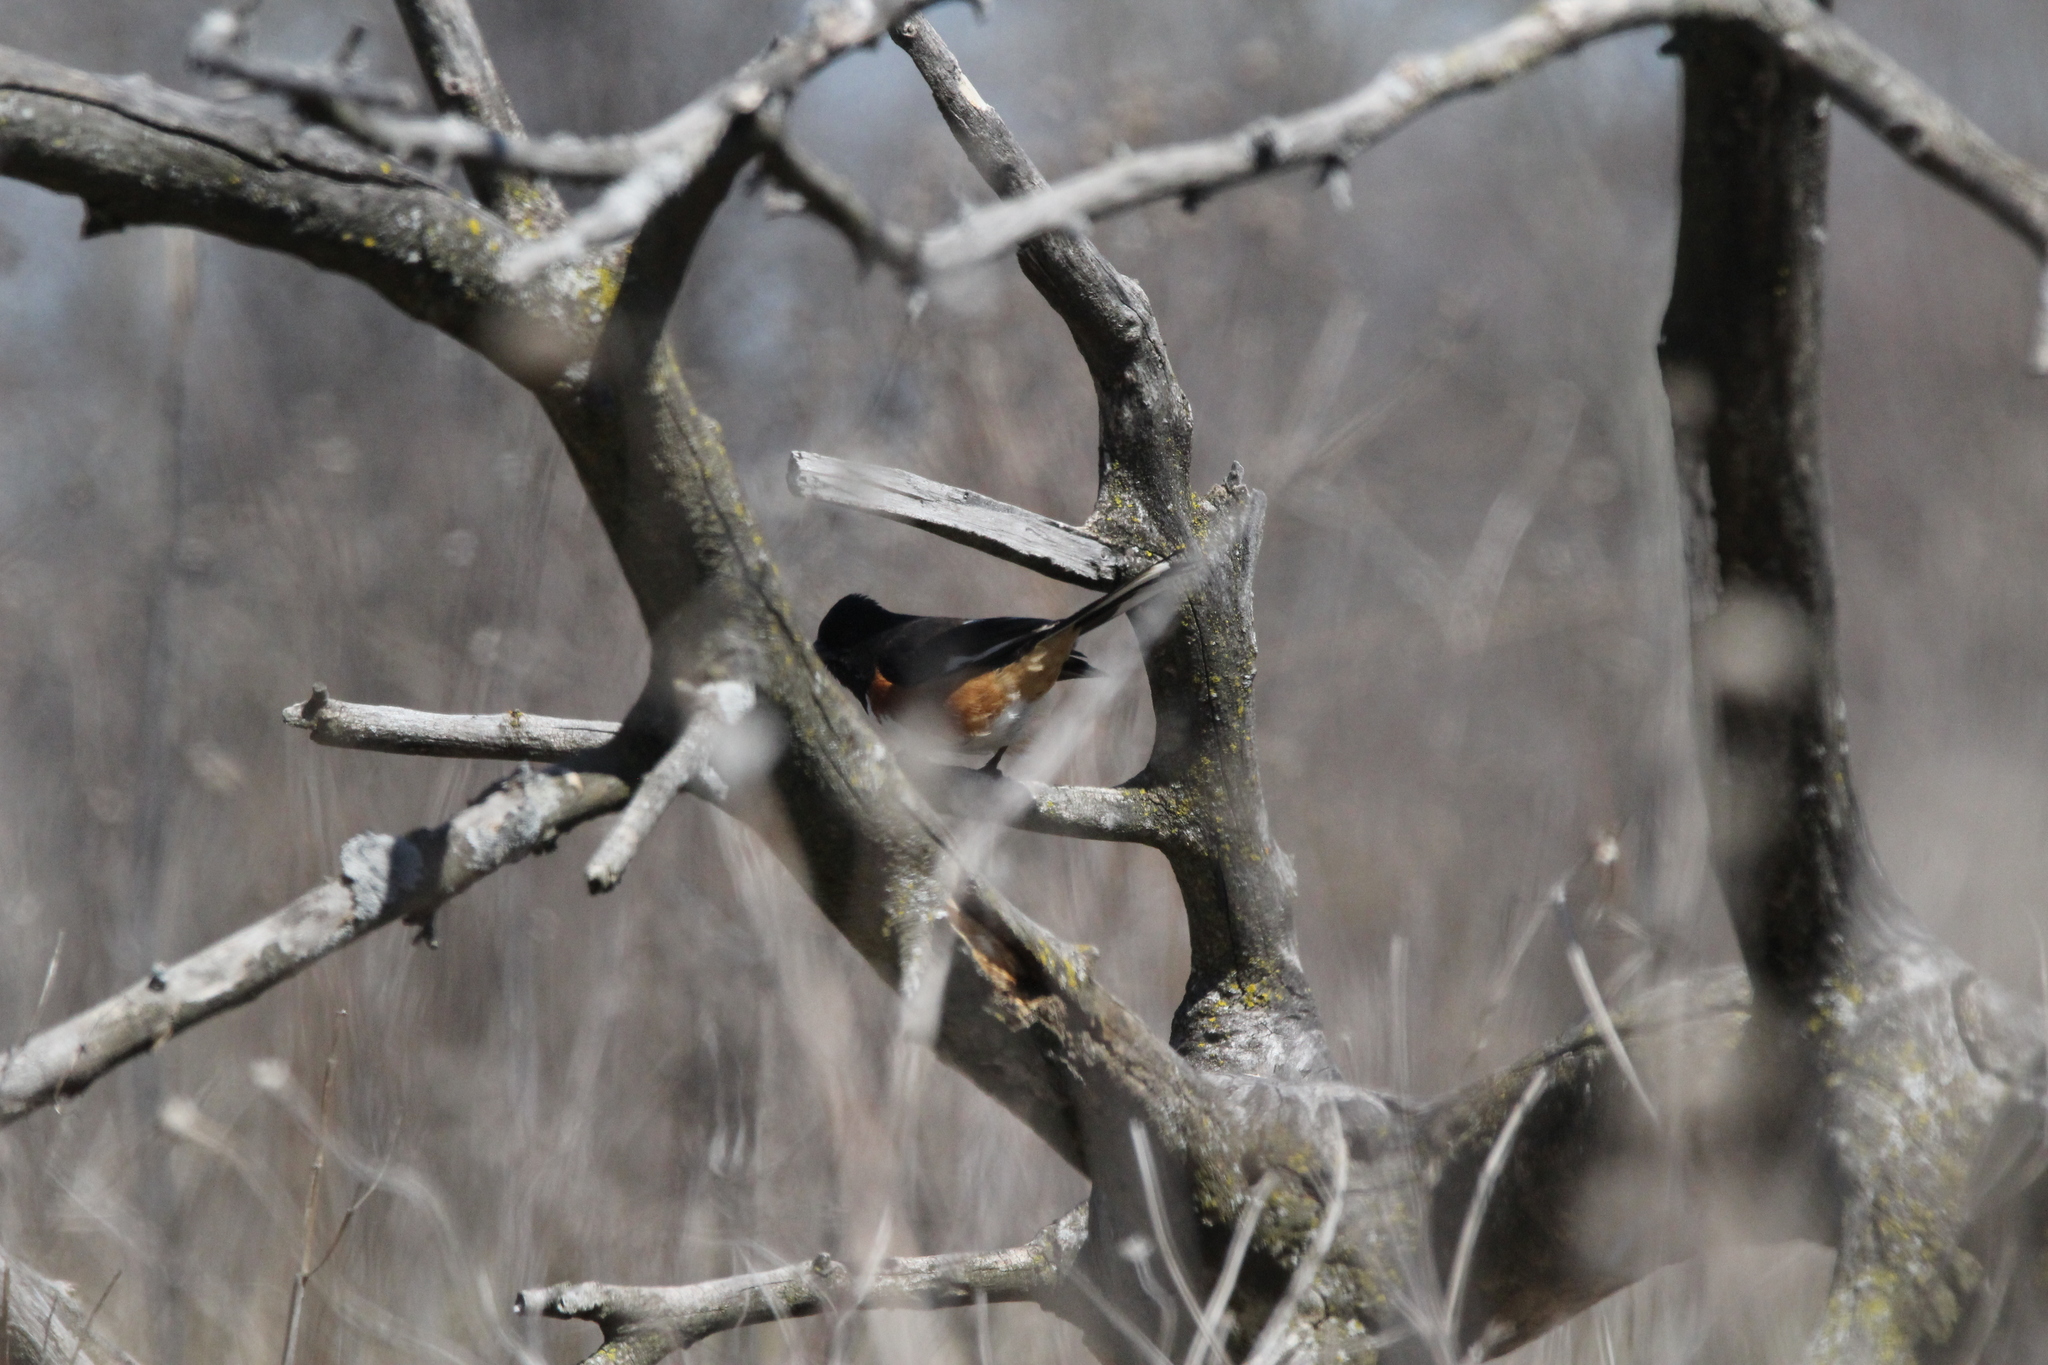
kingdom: Animalia
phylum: Chordata
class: Aves
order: Passeriformes
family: Passerellidae
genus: Pipilo
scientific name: Pipilo erythrophthalmus
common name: Eastern towhee
